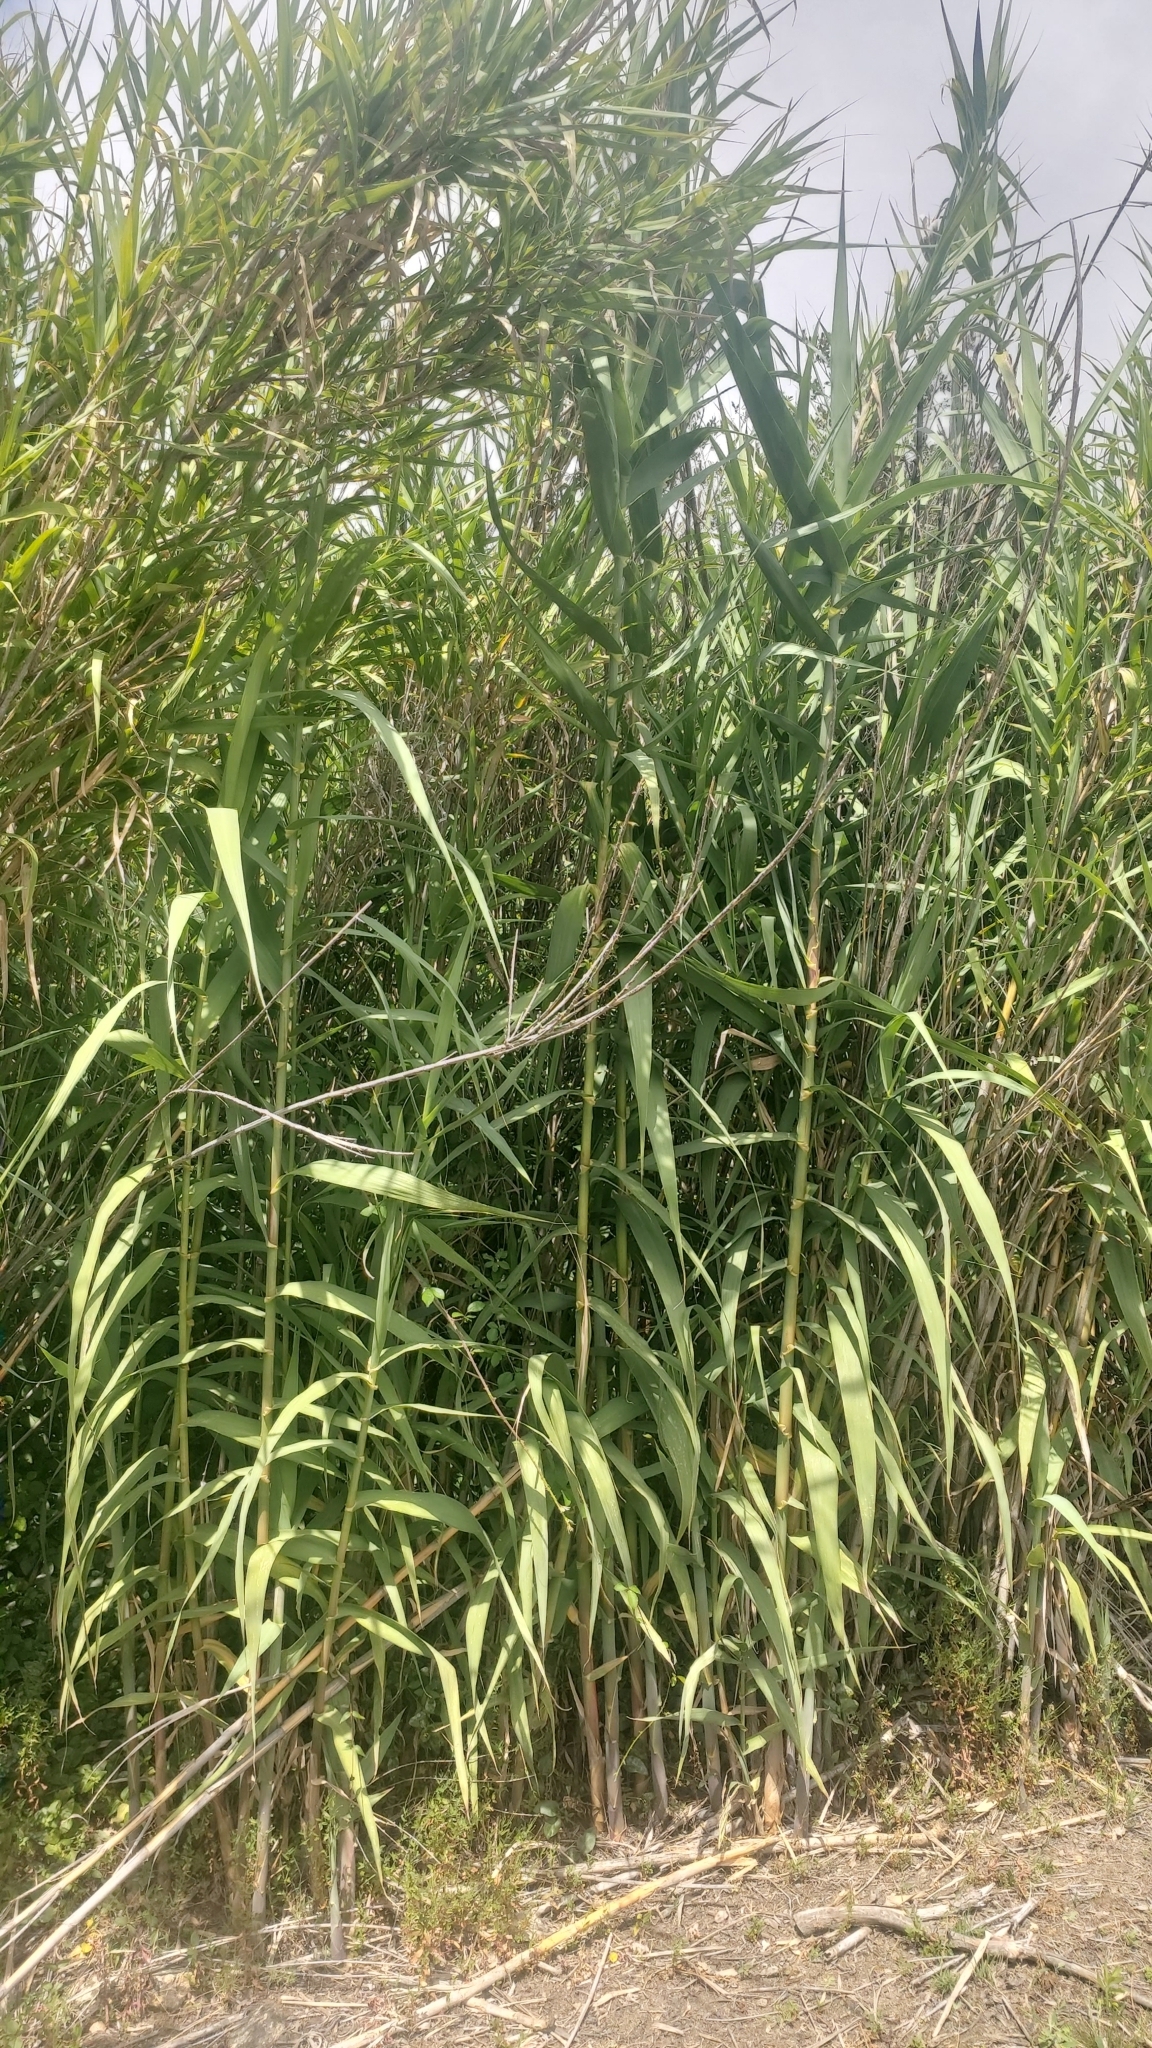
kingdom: Plantae
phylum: Tracheophyta
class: Liliopsida
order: Poales
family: Poaceae
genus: Arundo
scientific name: Arundo donax
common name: Giant reed
